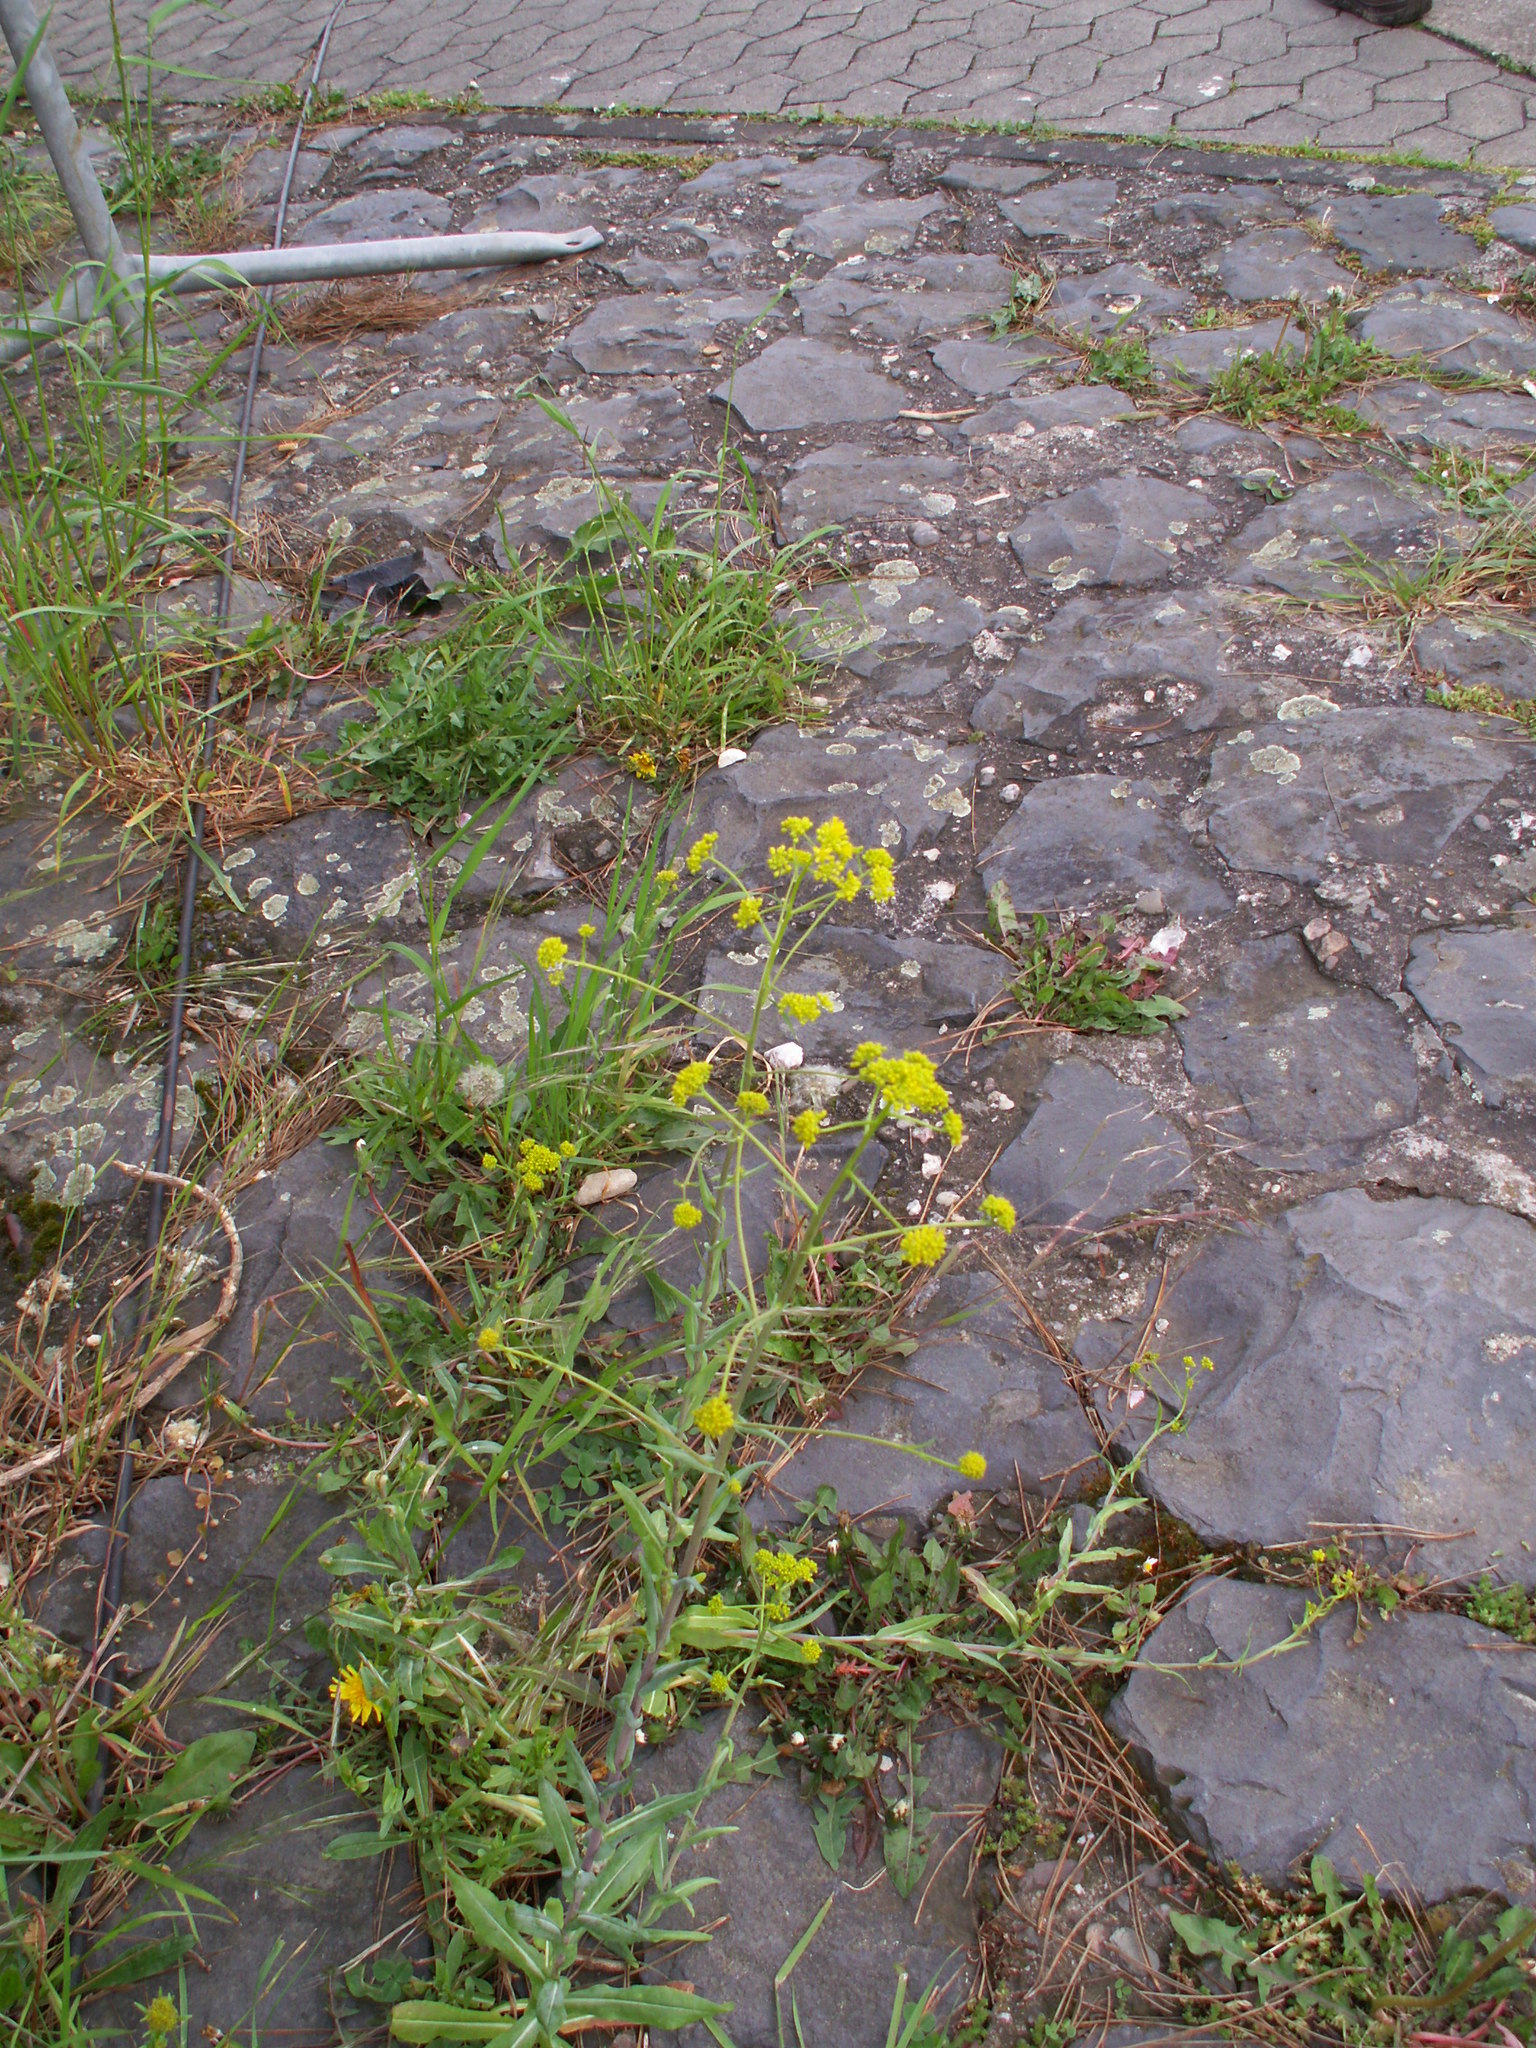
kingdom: Plantae
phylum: Tracheophyta
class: Magnoliopsida
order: Brassicales
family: Brassicaceae
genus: Isatis
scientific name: Isatis tinctoria
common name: Woad
